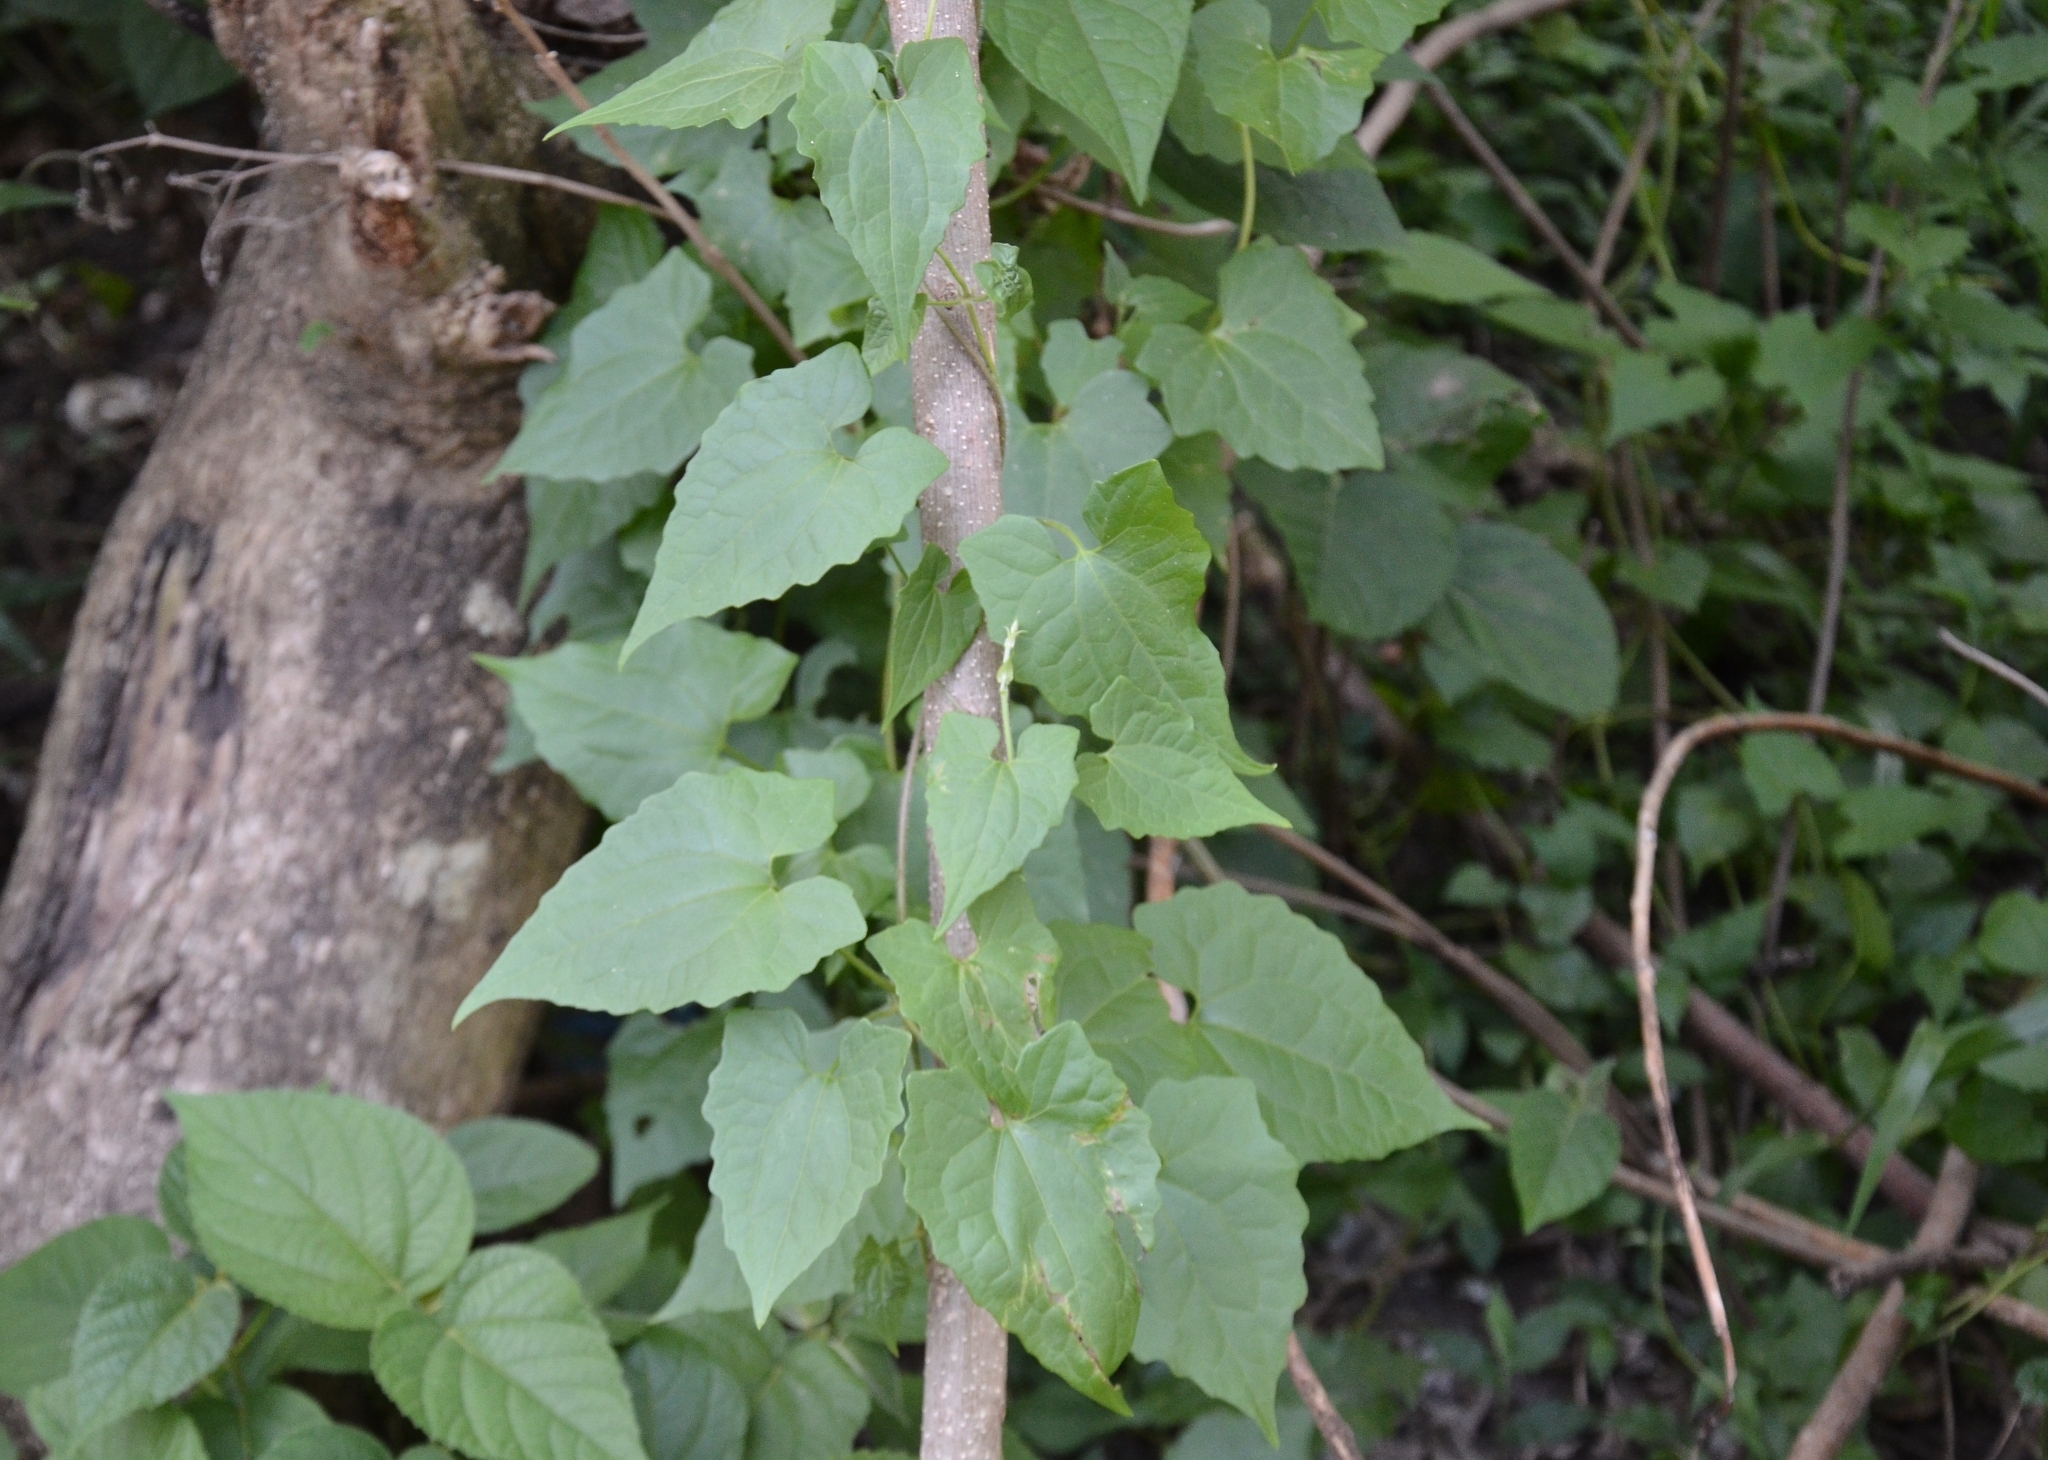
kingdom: Plantae
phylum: Tracheophyta
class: Magnoliopsida
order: Asterales
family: Asteraceae
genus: Mikania
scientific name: Mikania micrantha
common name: Mile-a-minute
